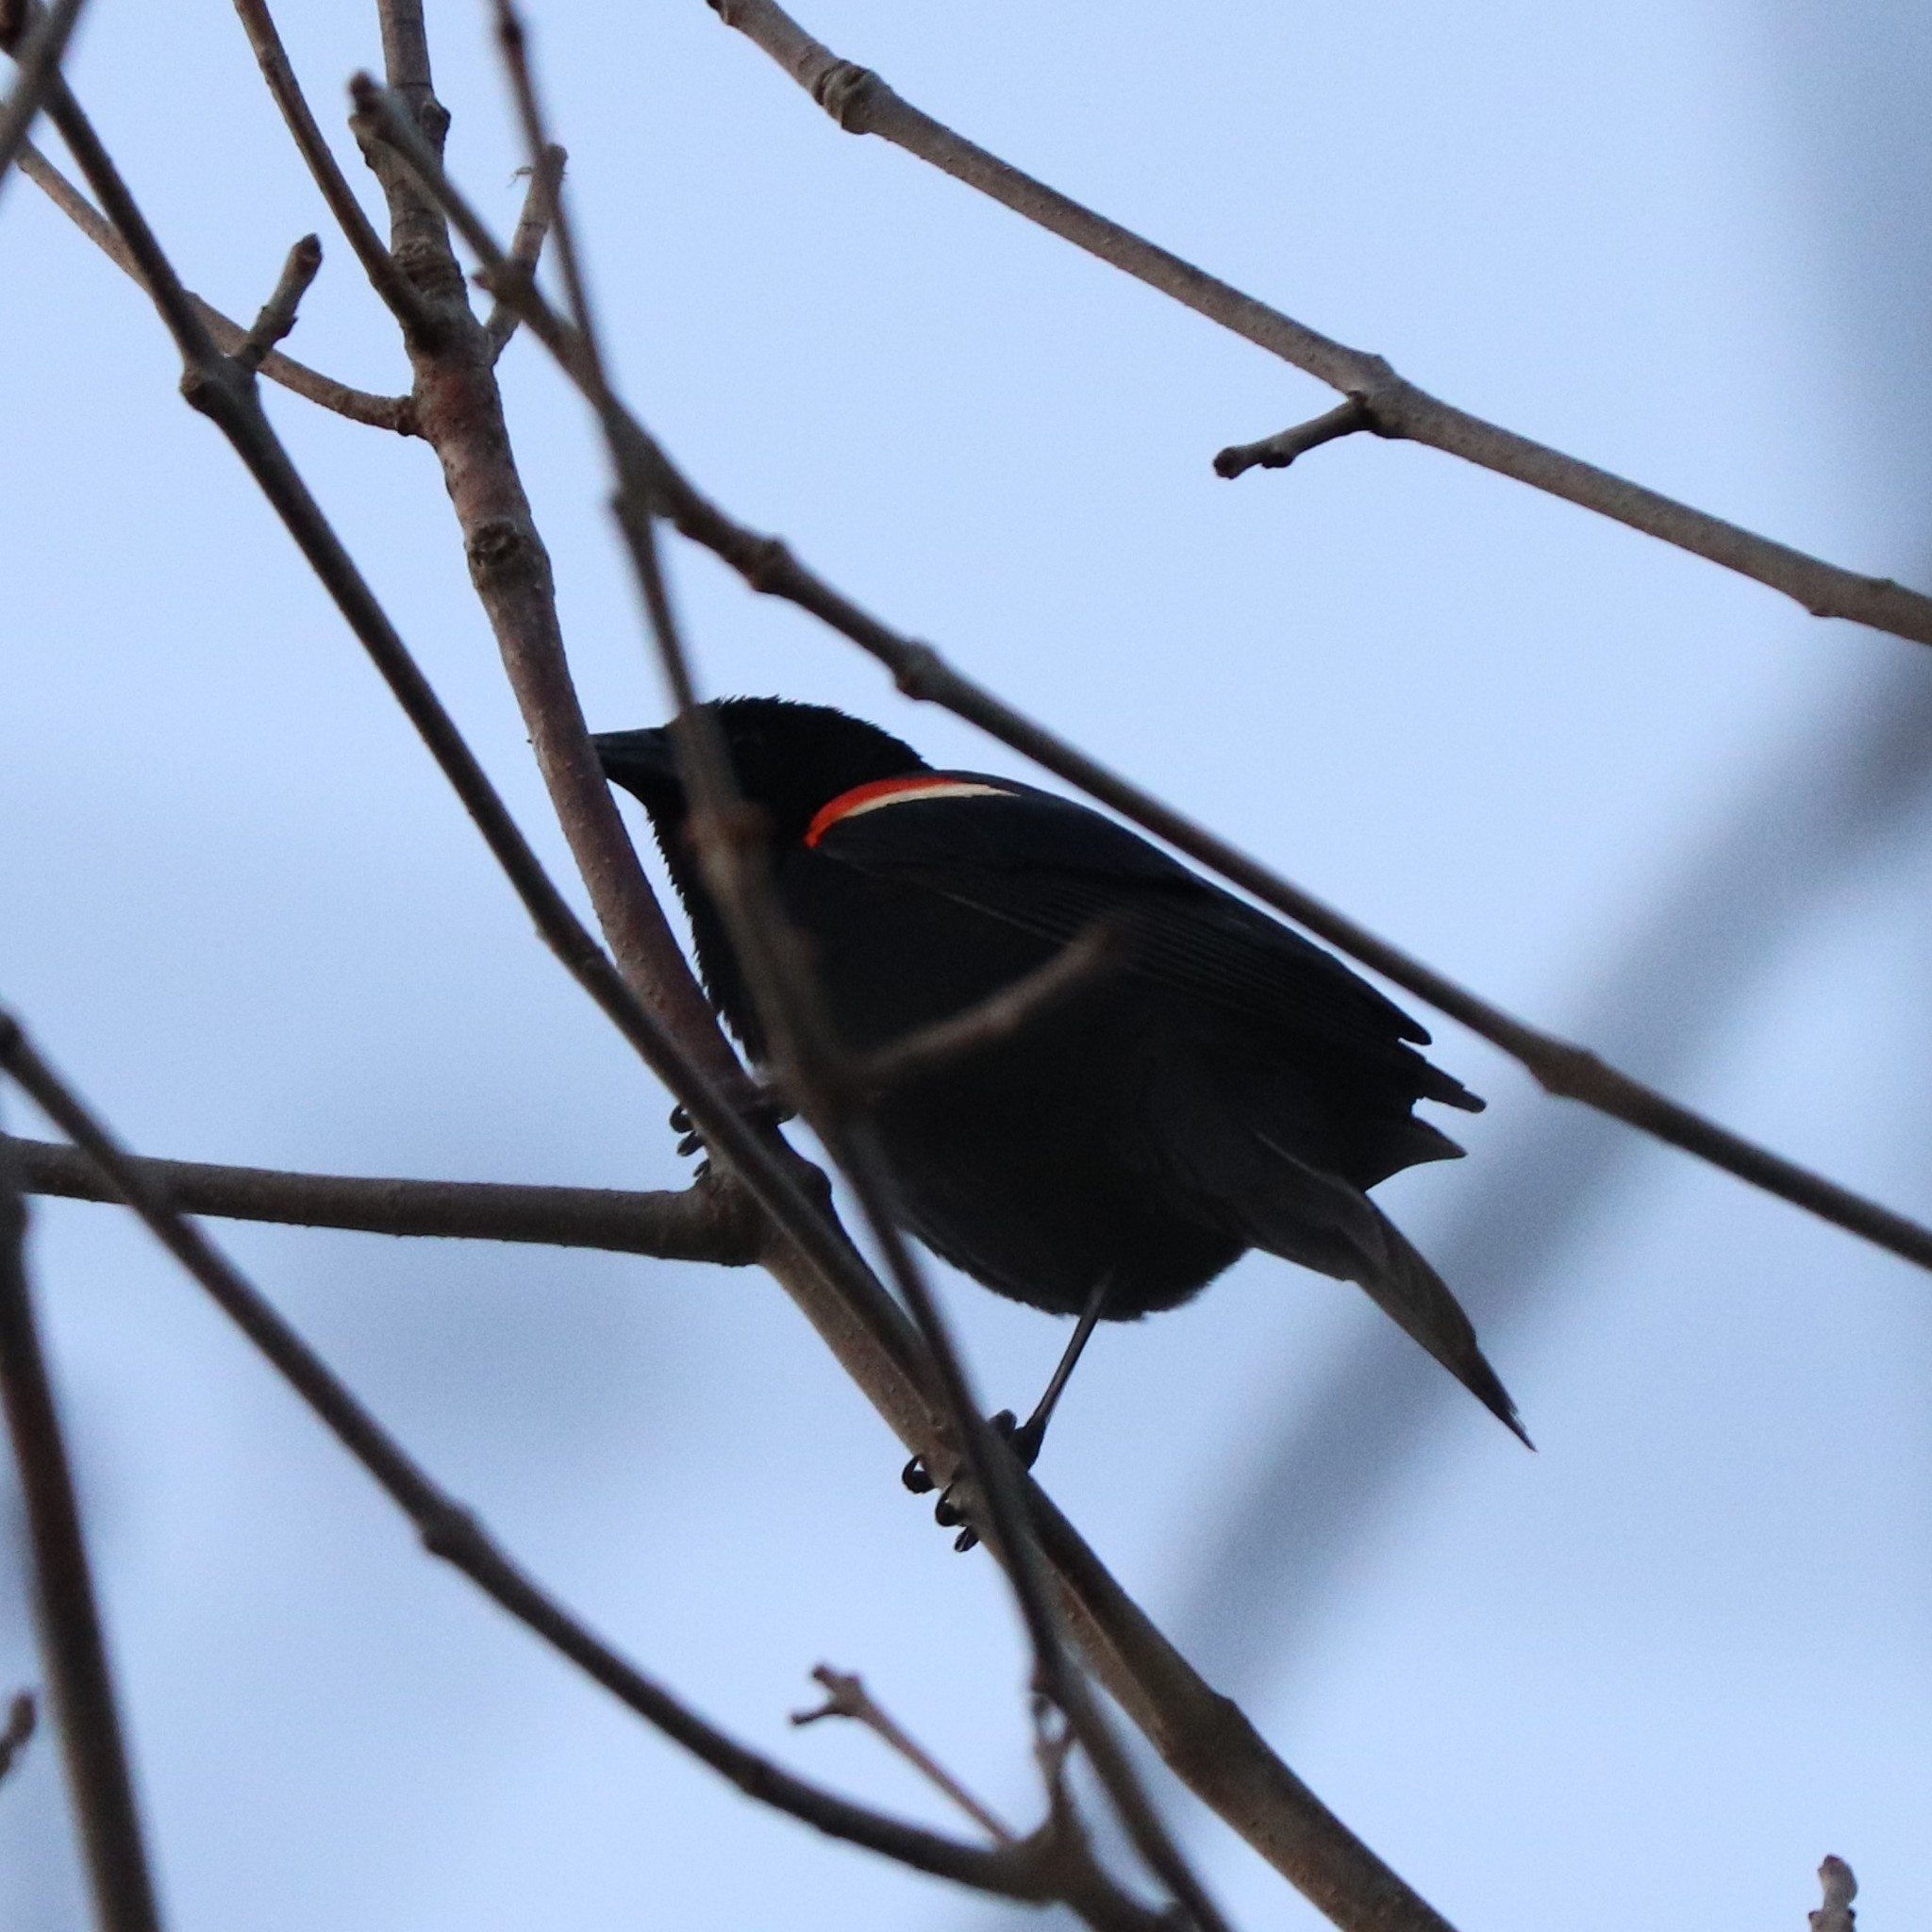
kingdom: Animalia
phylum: Chordata
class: Aves
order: Passeriformes
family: Icteridae
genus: Agelaius
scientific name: Agelaius phoeniceus
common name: Red-winged blackbird
